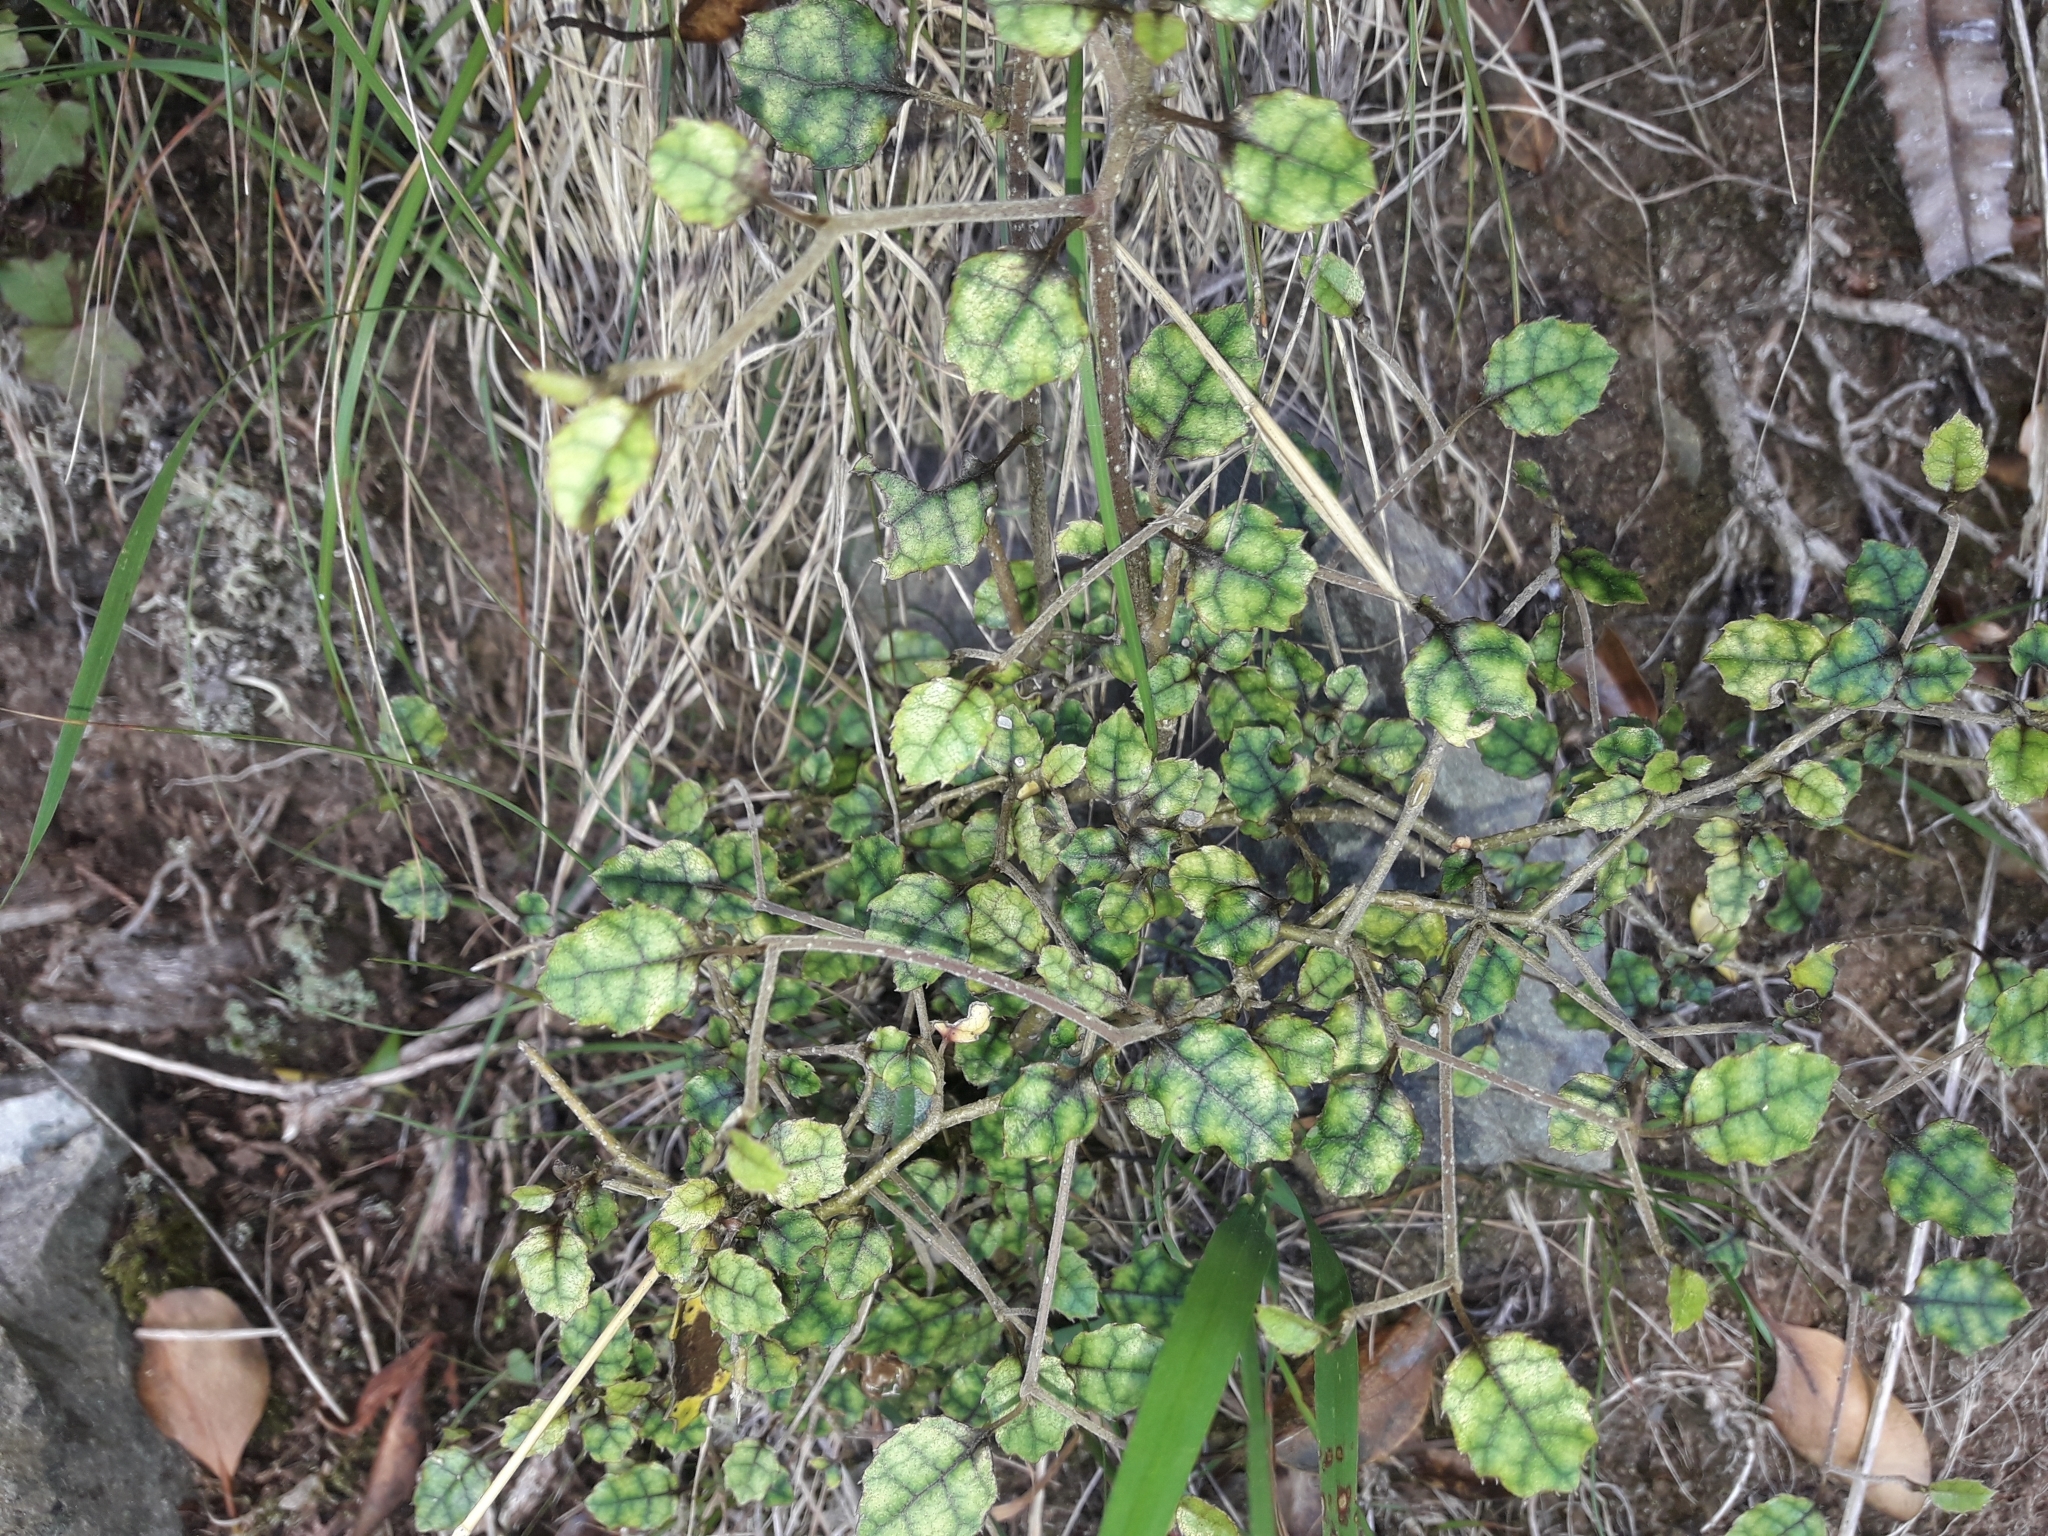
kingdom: Plantae
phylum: Tracheophyta
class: Magnoliopsida
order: Asterales
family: Rousseaceae
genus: Carpodetus
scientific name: Carpodetus serratus
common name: White mapau
